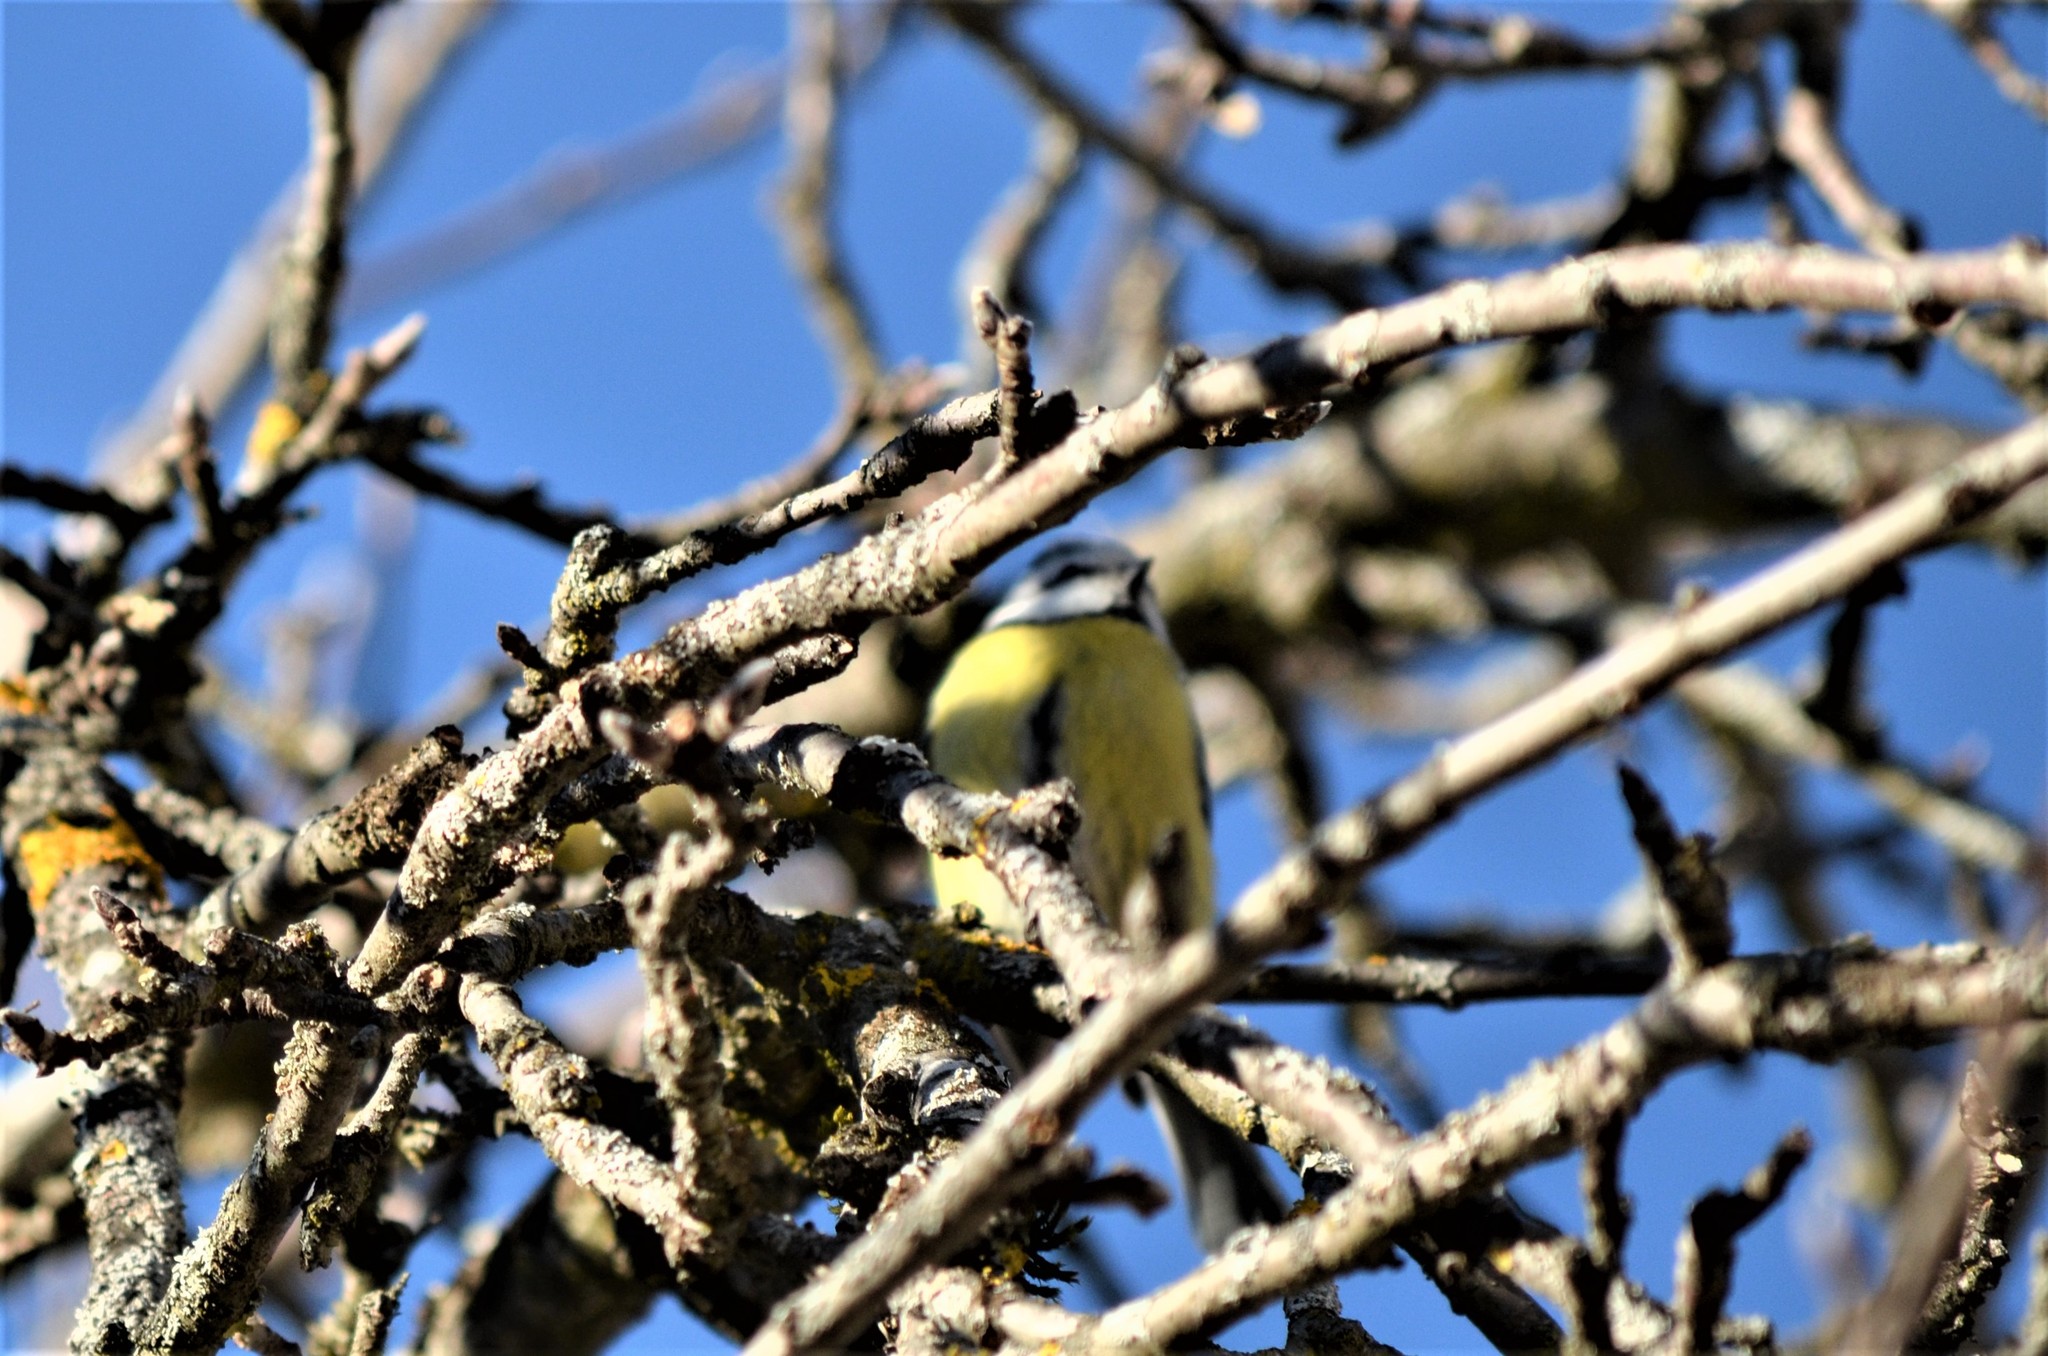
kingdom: Animalia
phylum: Chordata
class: Aves
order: Passeriformes
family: Paridae
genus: Cyanistes
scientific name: Cyanistes caeruleus
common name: Eurasian blue tit
